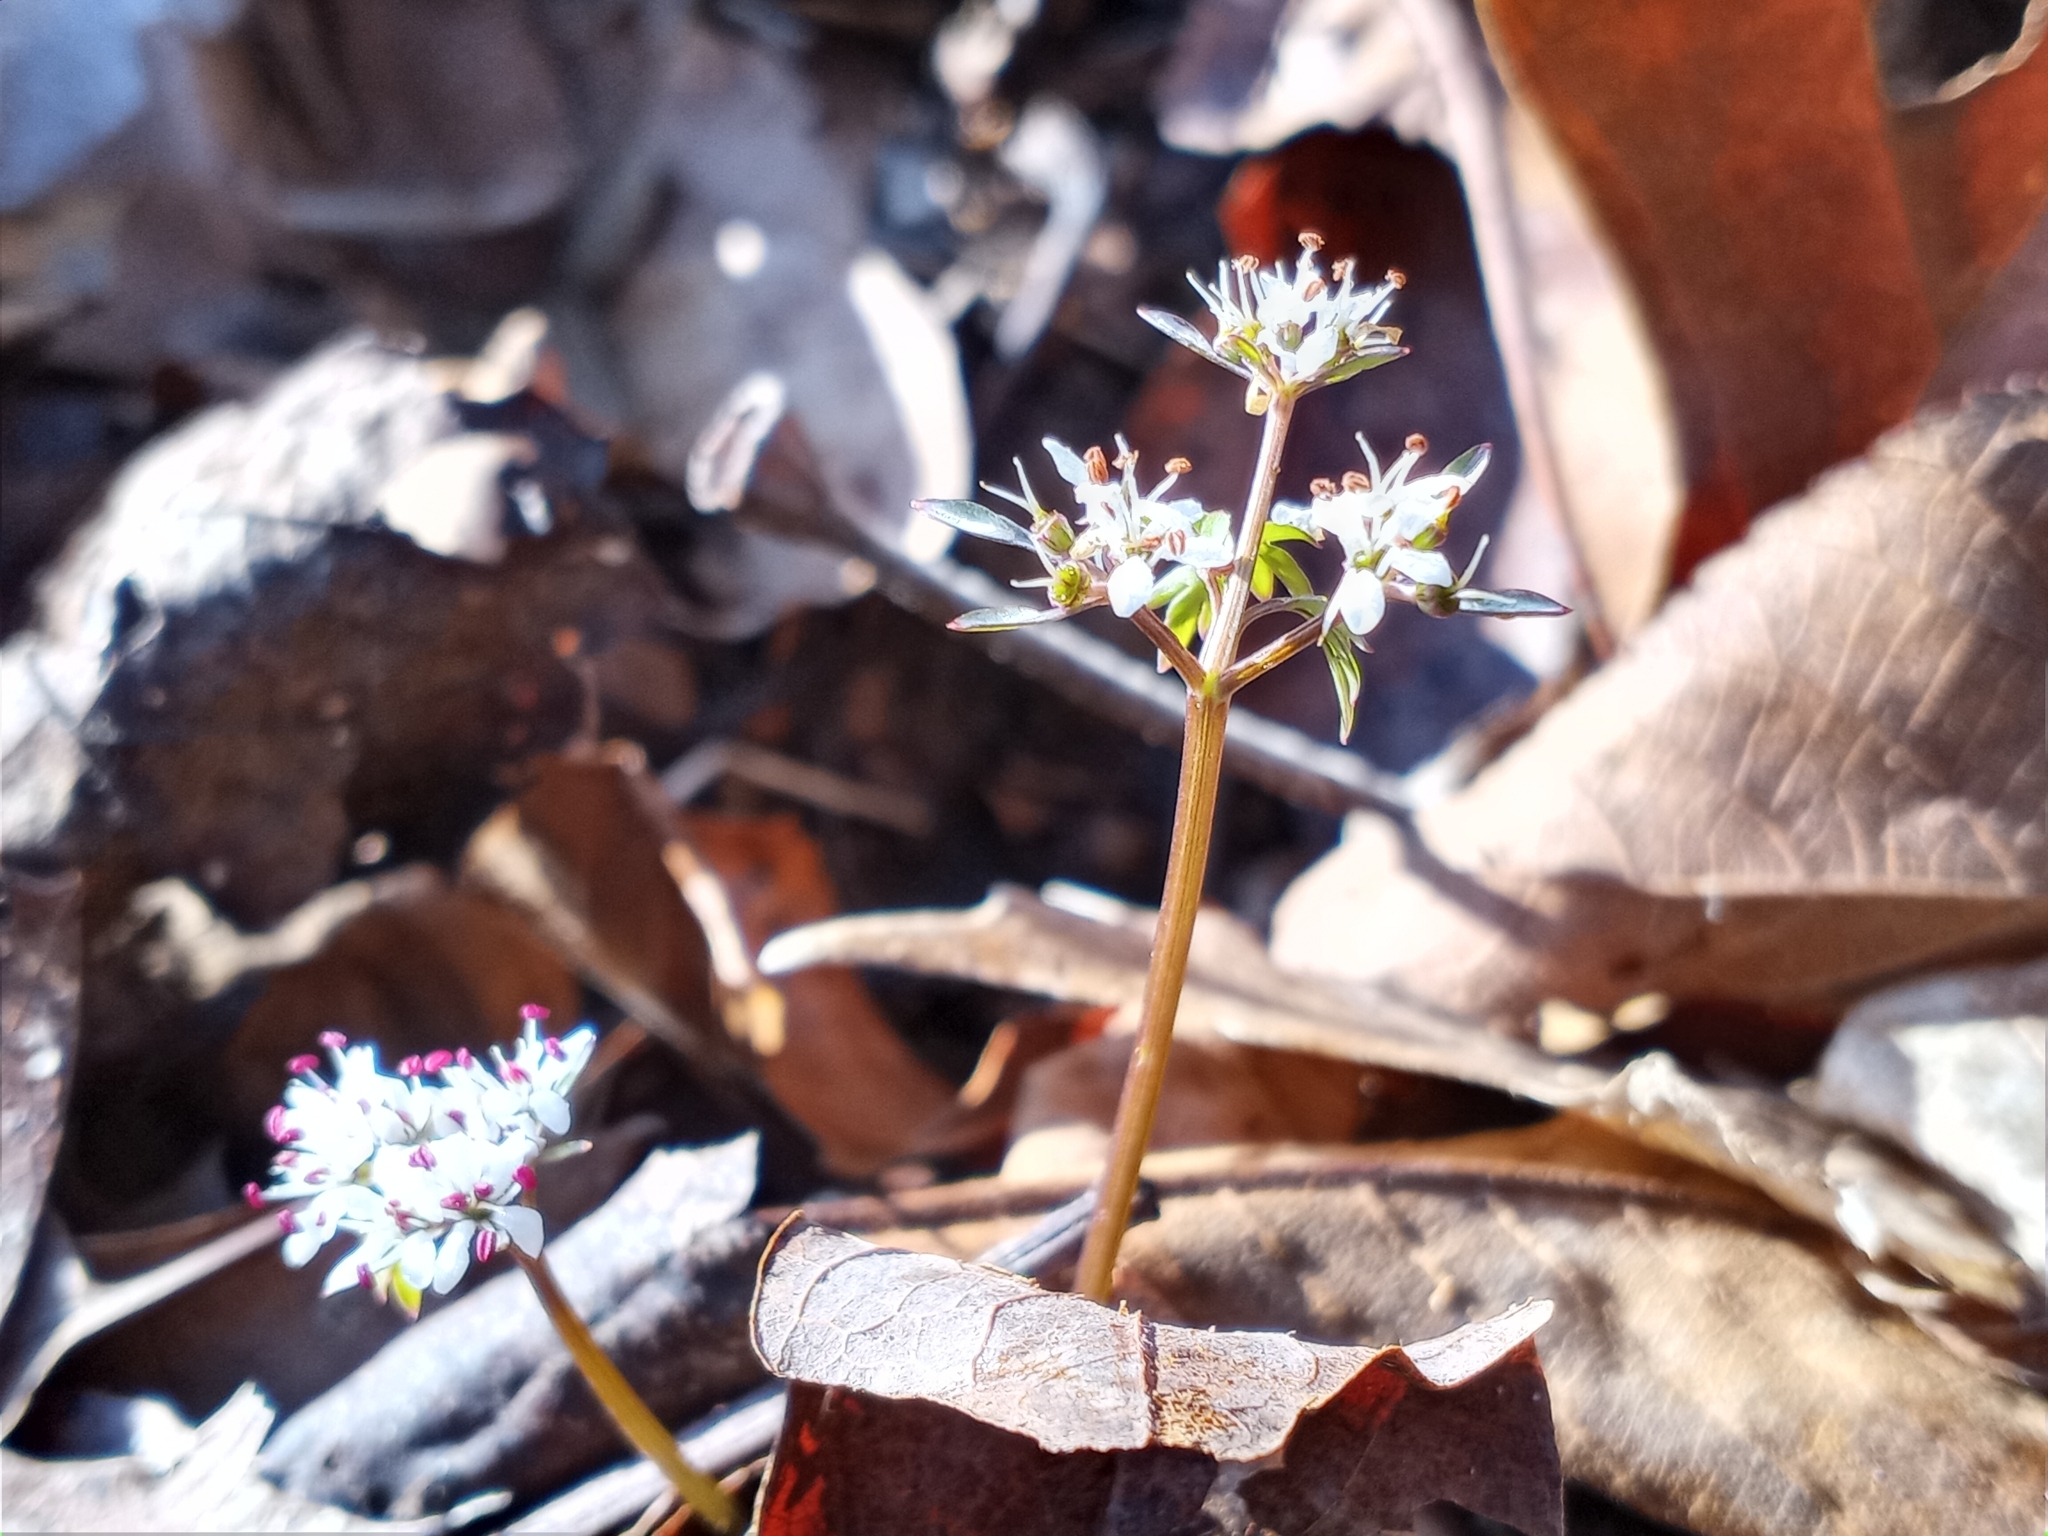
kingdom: Plantae
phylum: Tracheophyta
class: Magnoliopsida
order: Apiales
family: Apiaceae
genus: Erigenia
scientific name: Erigenia bulbosa
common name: Pepper-and-salt
